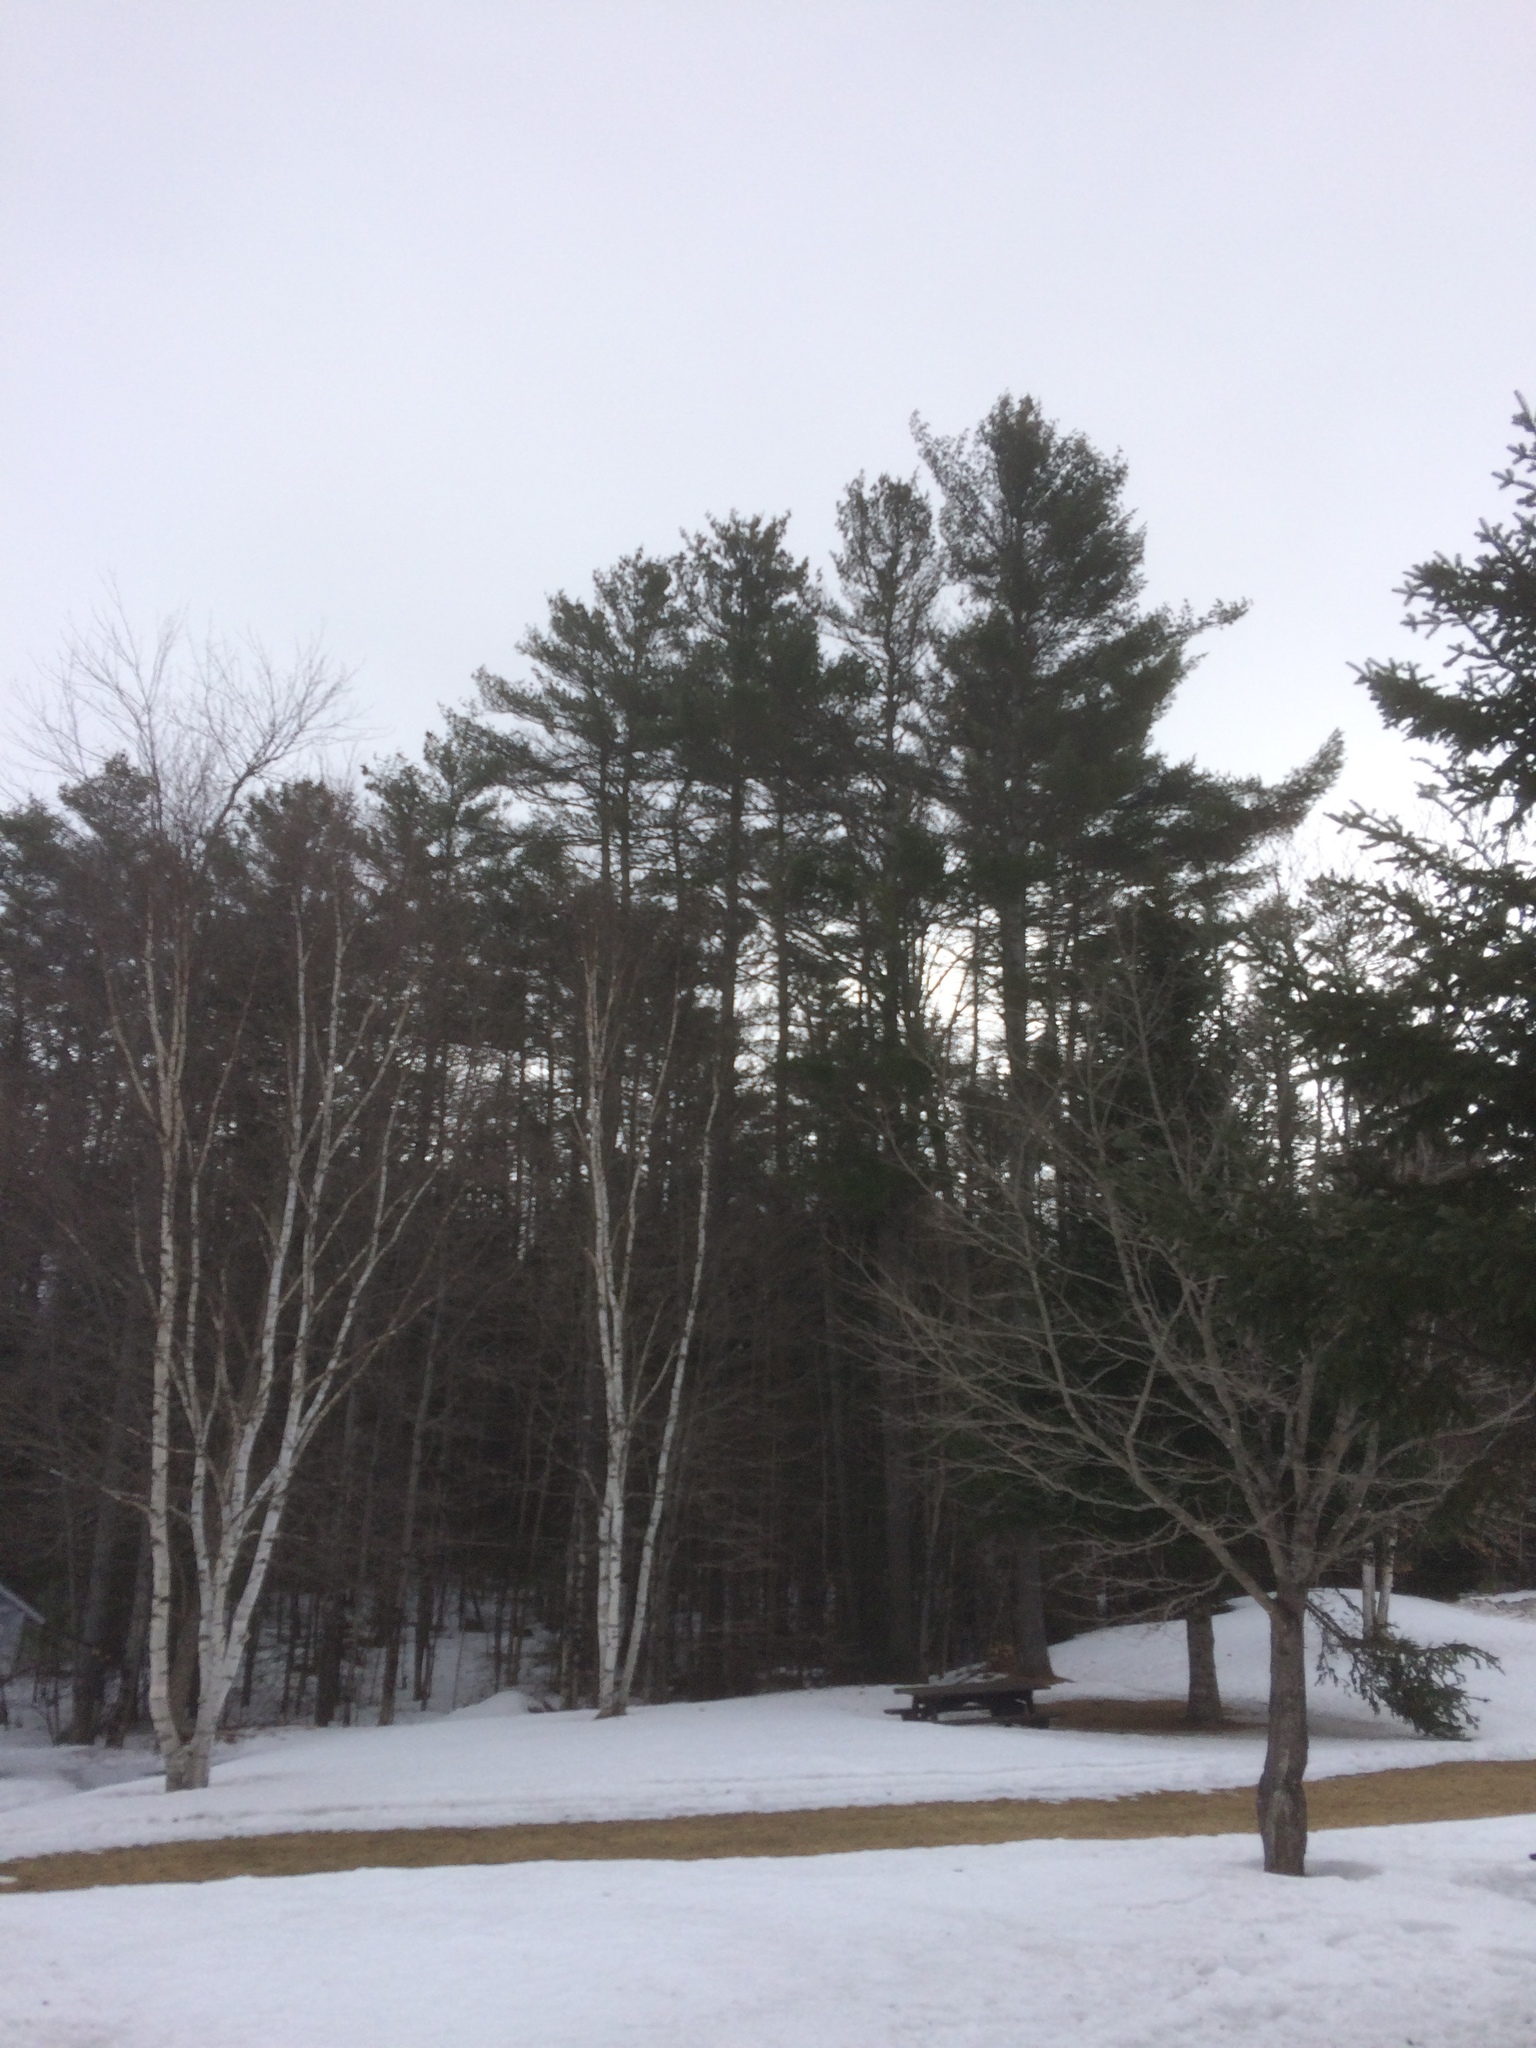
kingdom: Plantae
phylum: Tracheophyta
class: Pinopsida
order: Pinales
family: Pinaceae
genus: Pinus
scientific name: Pinus strobus
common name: Weymouth pine
